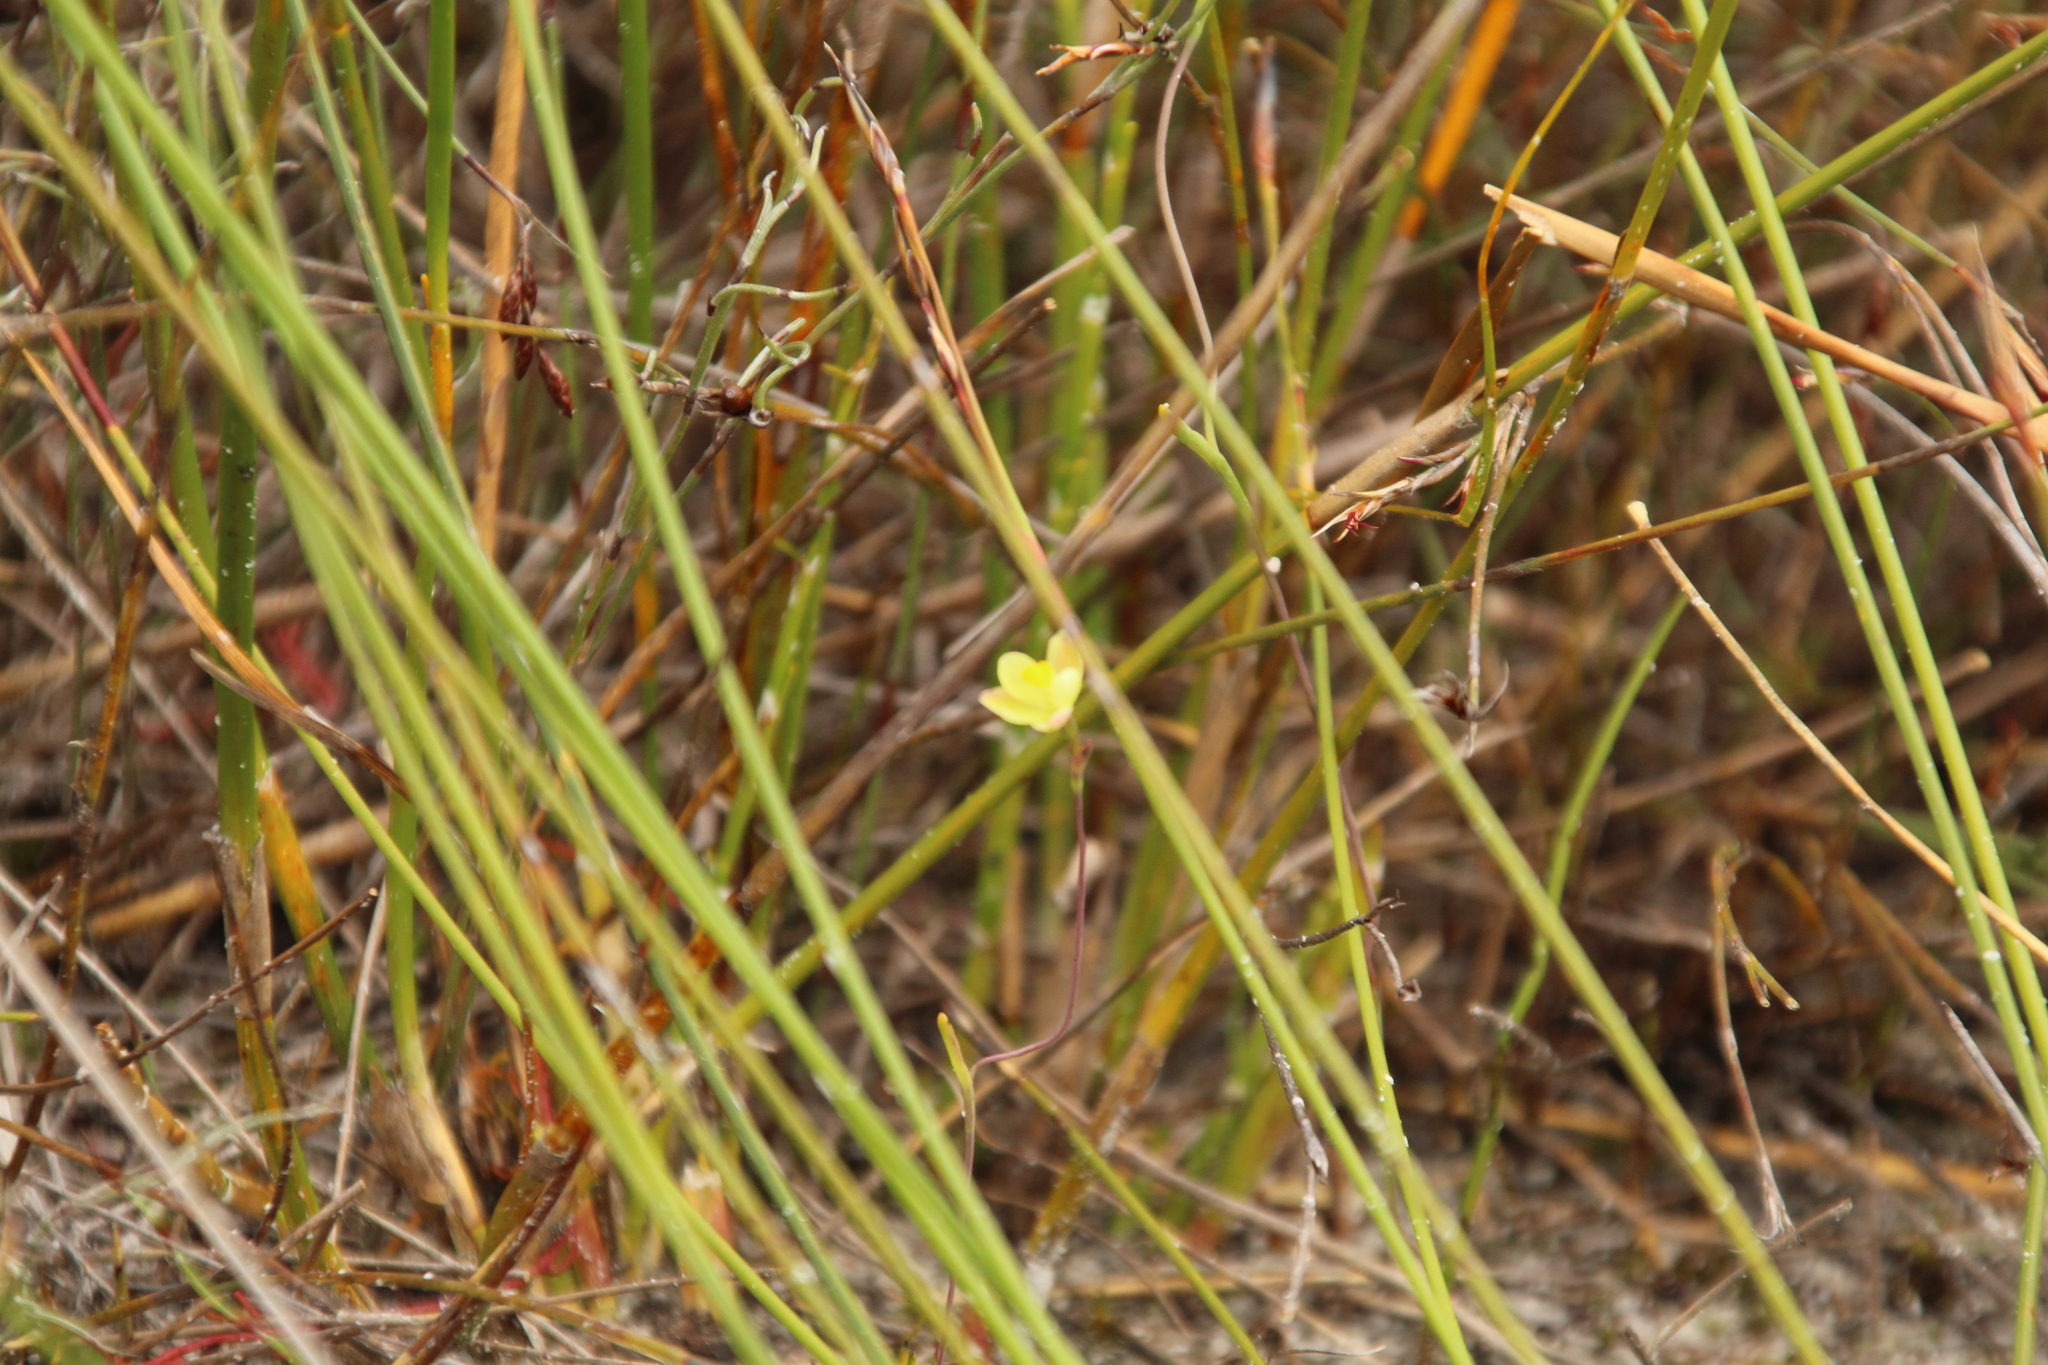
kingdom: Plantae
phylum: Tracheophyta
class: Liliopsida
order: Asparagales
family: Orchidaceae
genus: Thelymitra
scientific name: Thelymitra flexuosa
